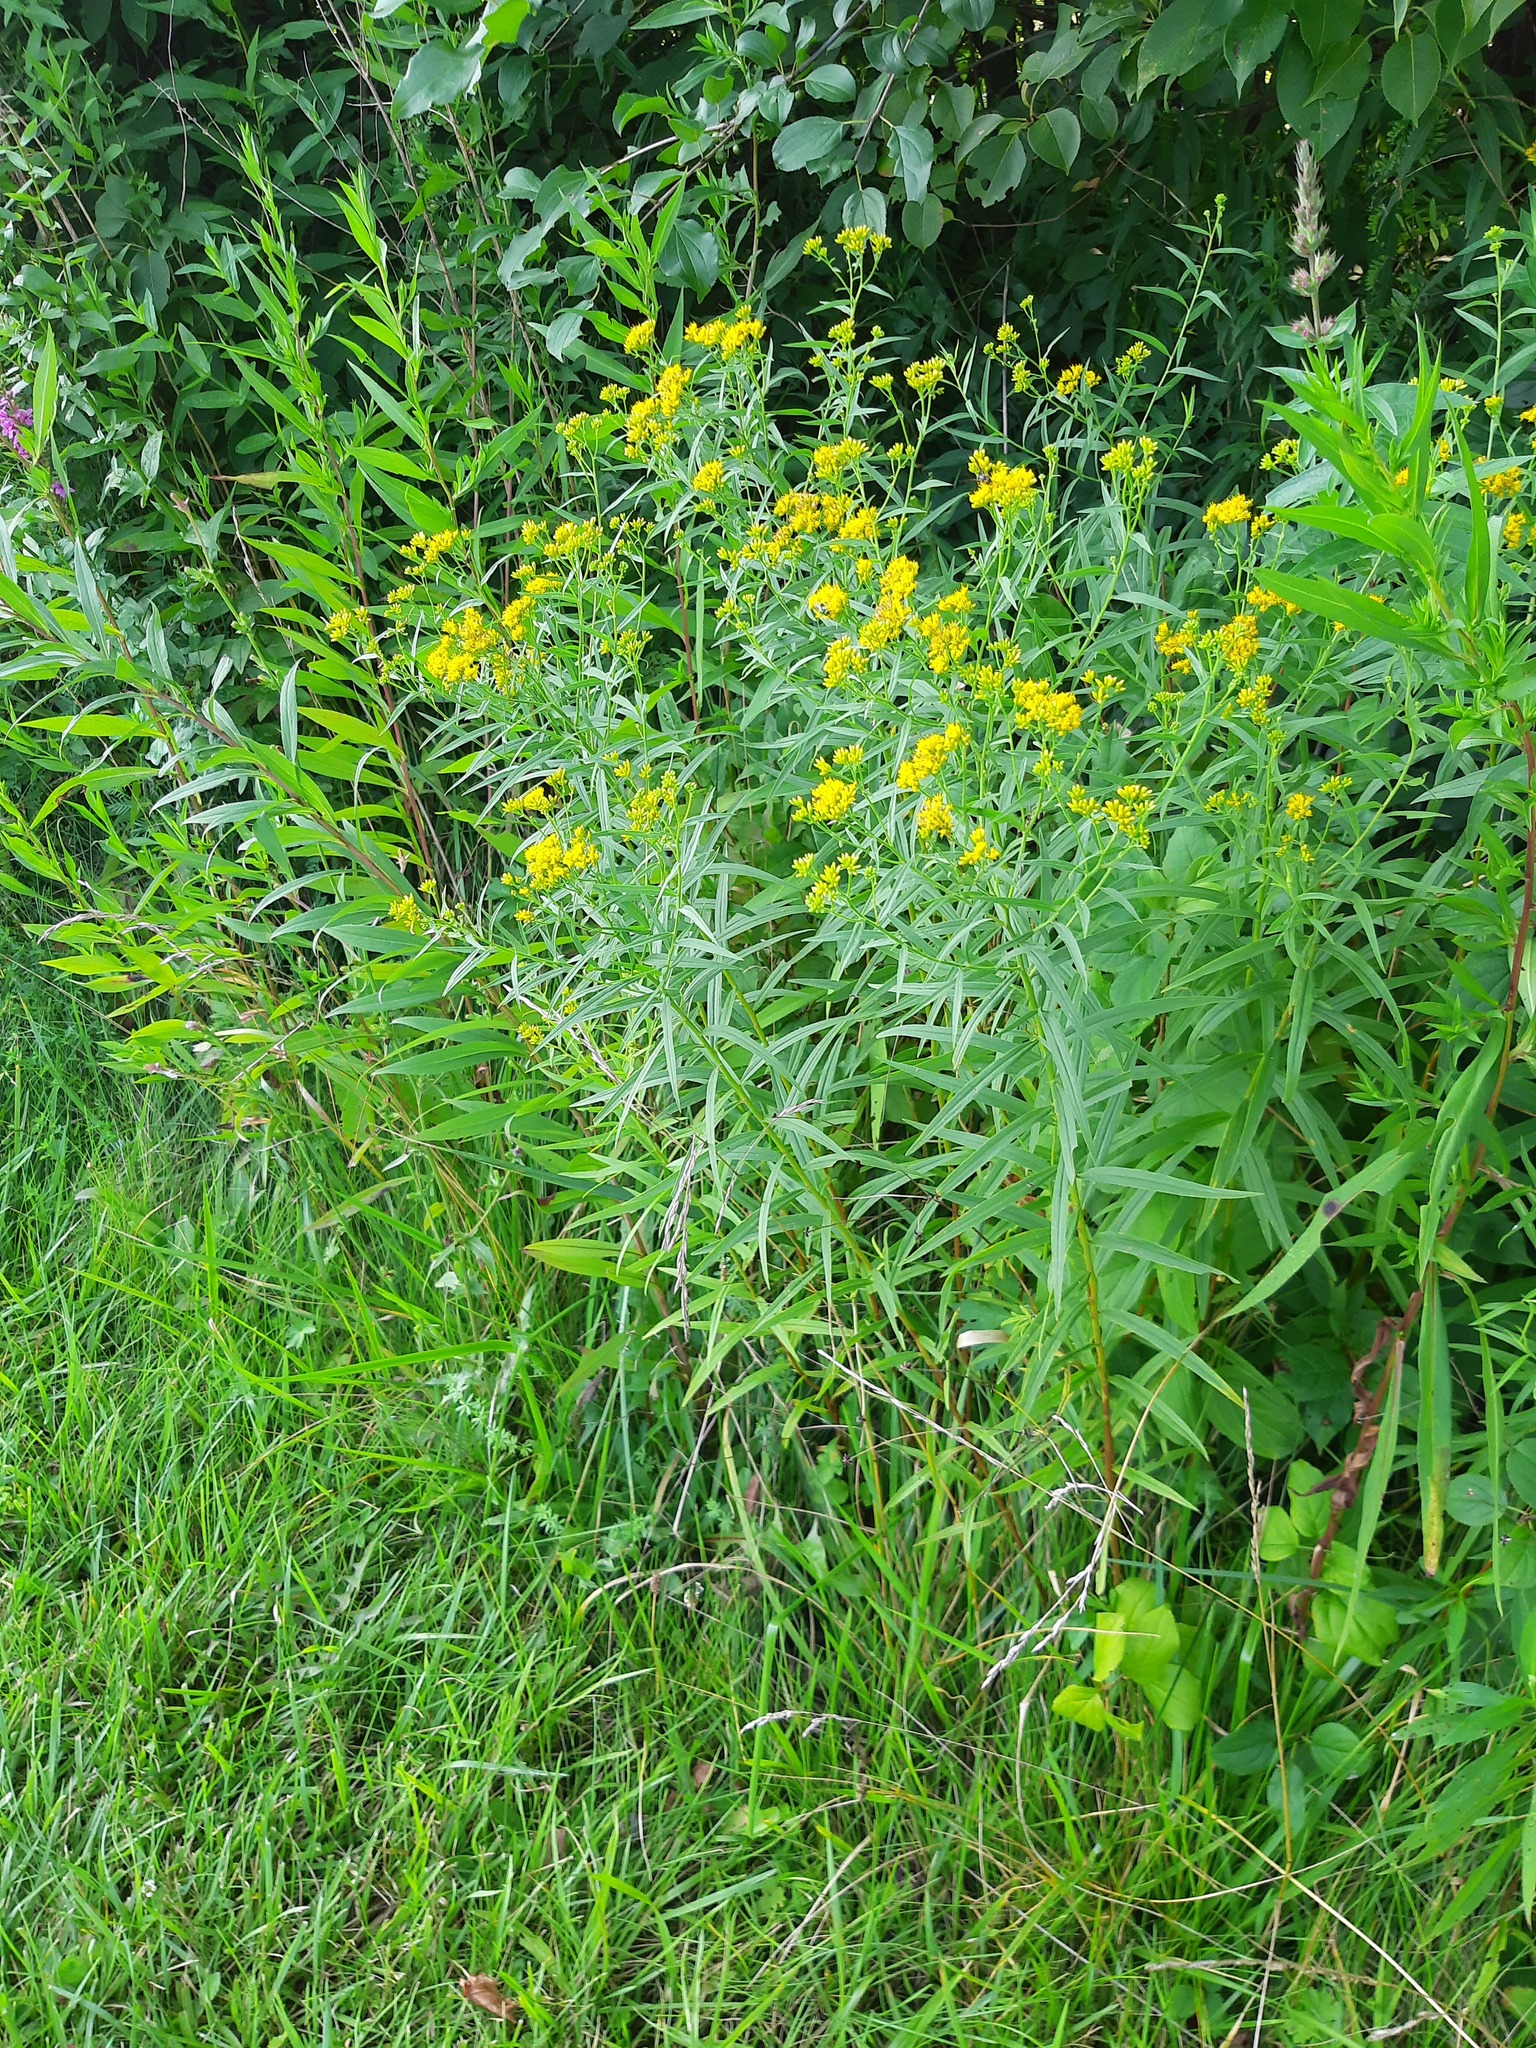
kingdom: Plantae
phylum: Tracheophyta
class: Magnoliopsida
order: Asterales
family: Asteraceae
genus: Euthamia
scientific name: Euthamia graminifolia
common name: Common goldentop
